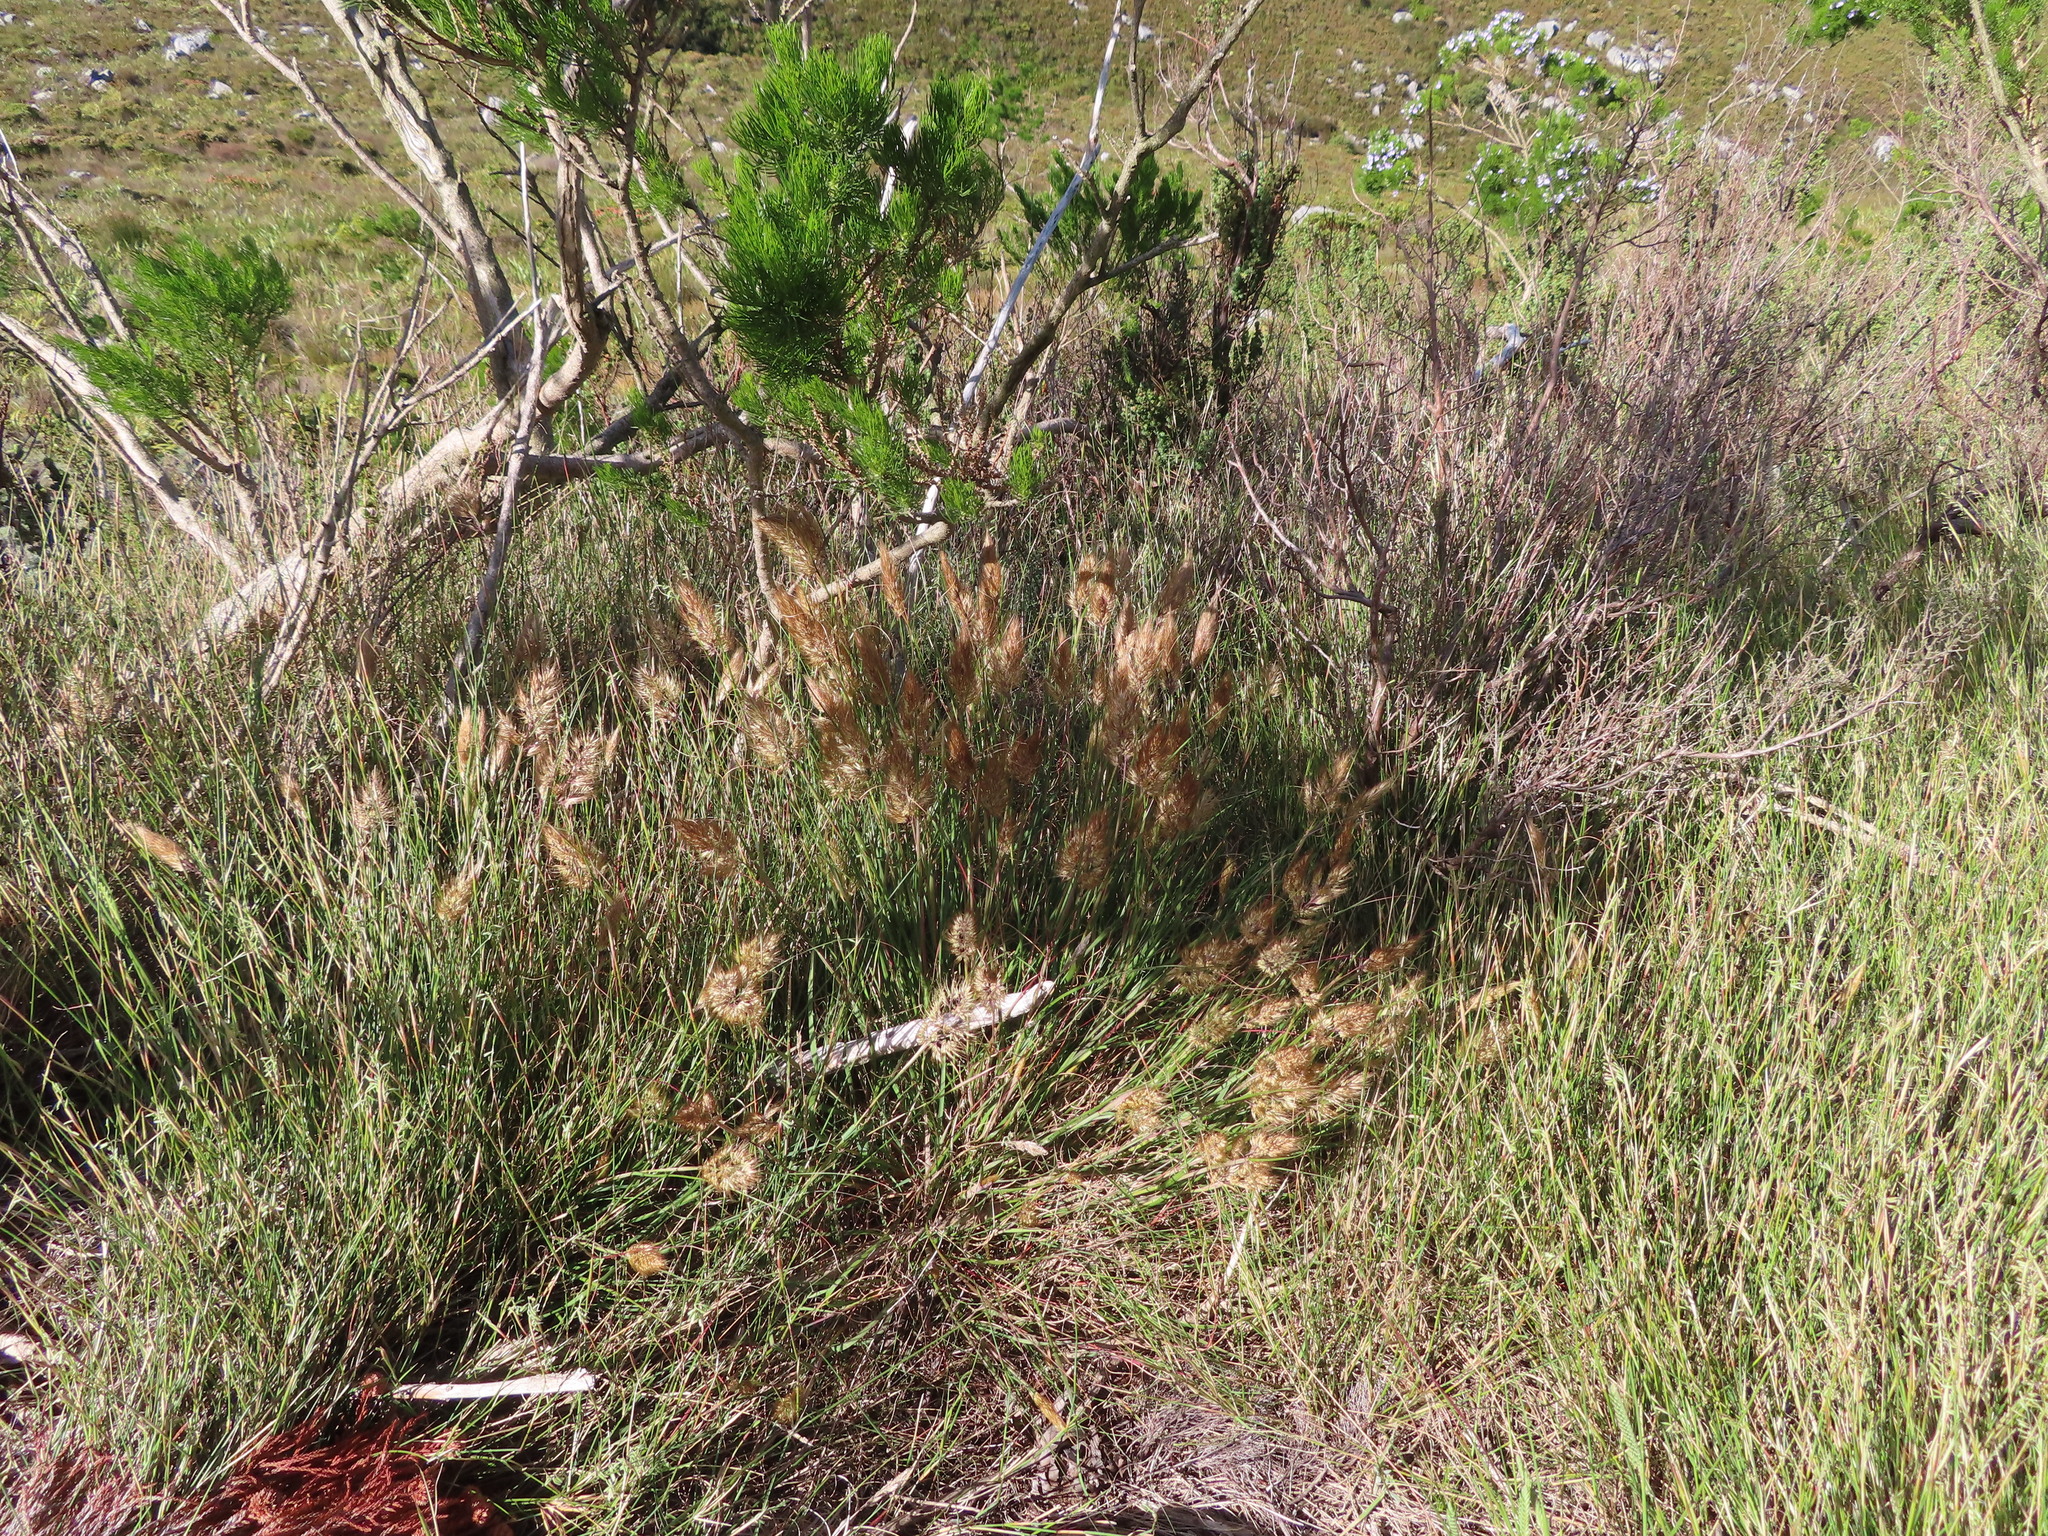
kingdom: Plantae
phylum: Tracheophyta
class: Liliopsida
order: Poales
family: Poaceae
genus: Pentameris
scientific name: Pentameris curvifolia
